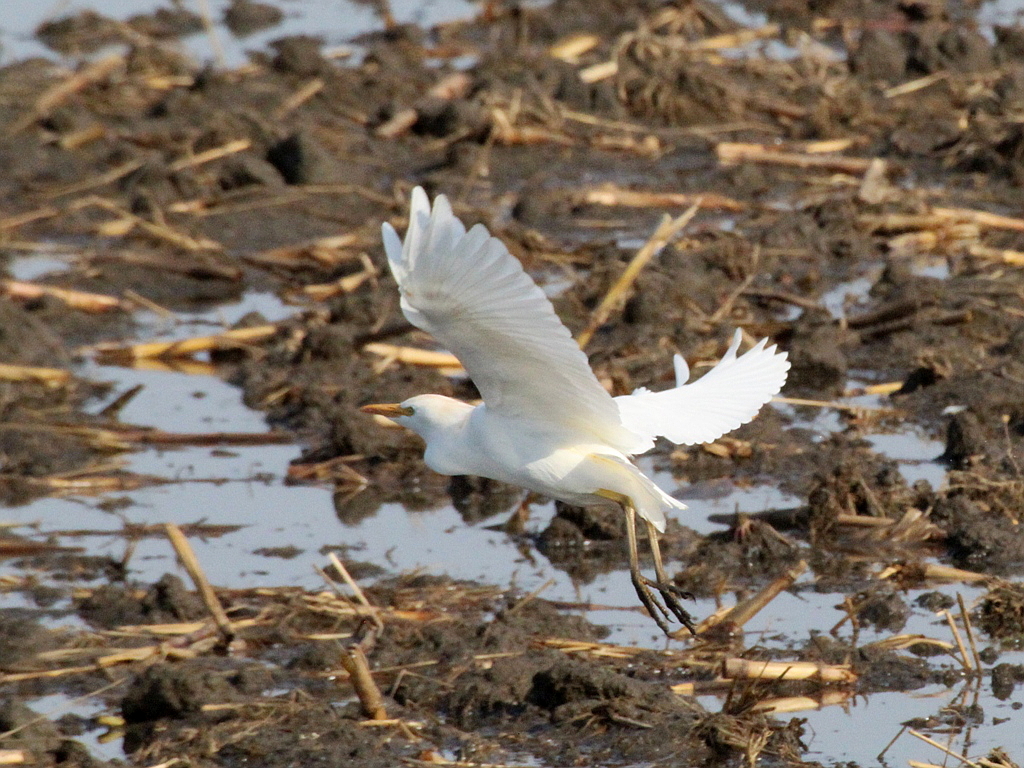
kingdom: Animalia
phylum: Chordata
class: Aves
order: Pelecaniformes
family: Ardeidae
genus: Bubulcus
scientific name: Bubulcus ibis
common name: Cattle egret
